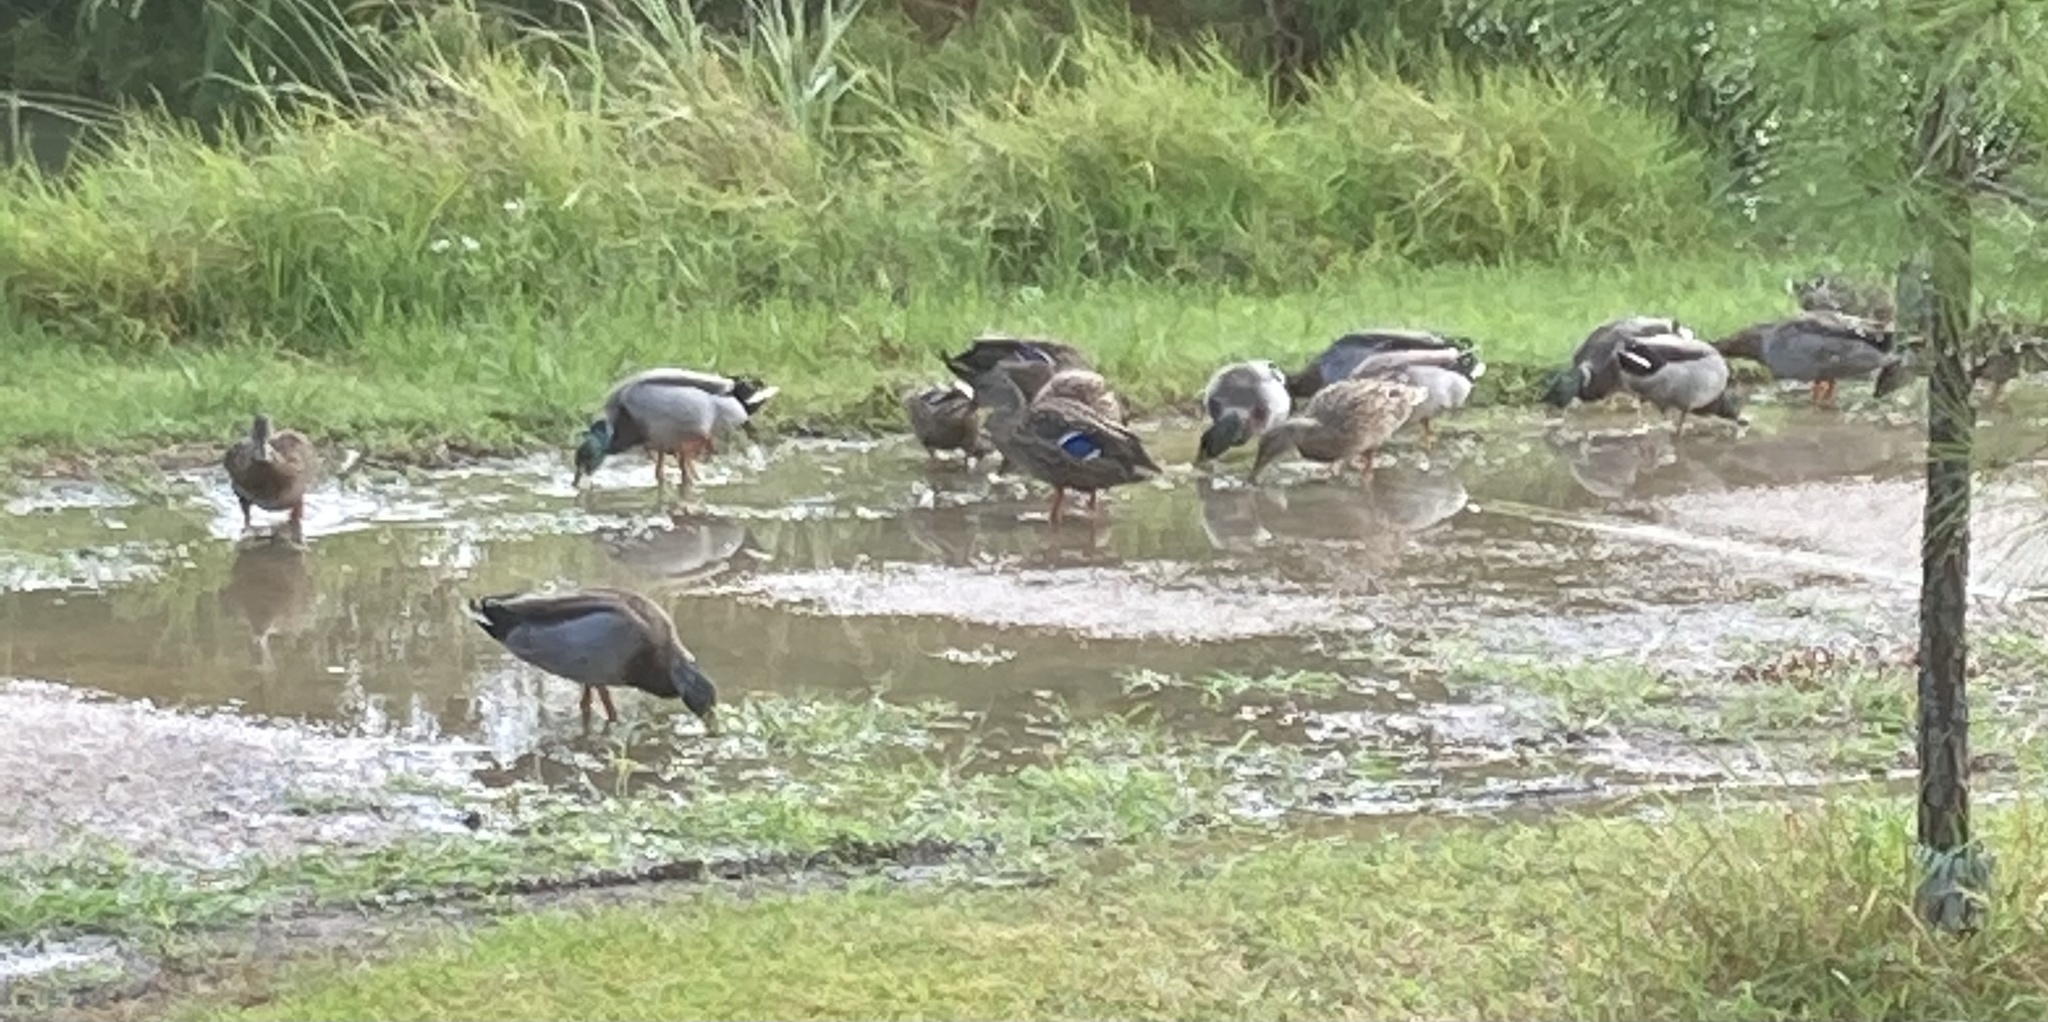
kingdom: Animalia
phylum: Chordata
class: Aves
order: Anseriformes
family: Anatidae
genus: Anas
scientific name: Anas platyrhynchos
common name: Mallard
